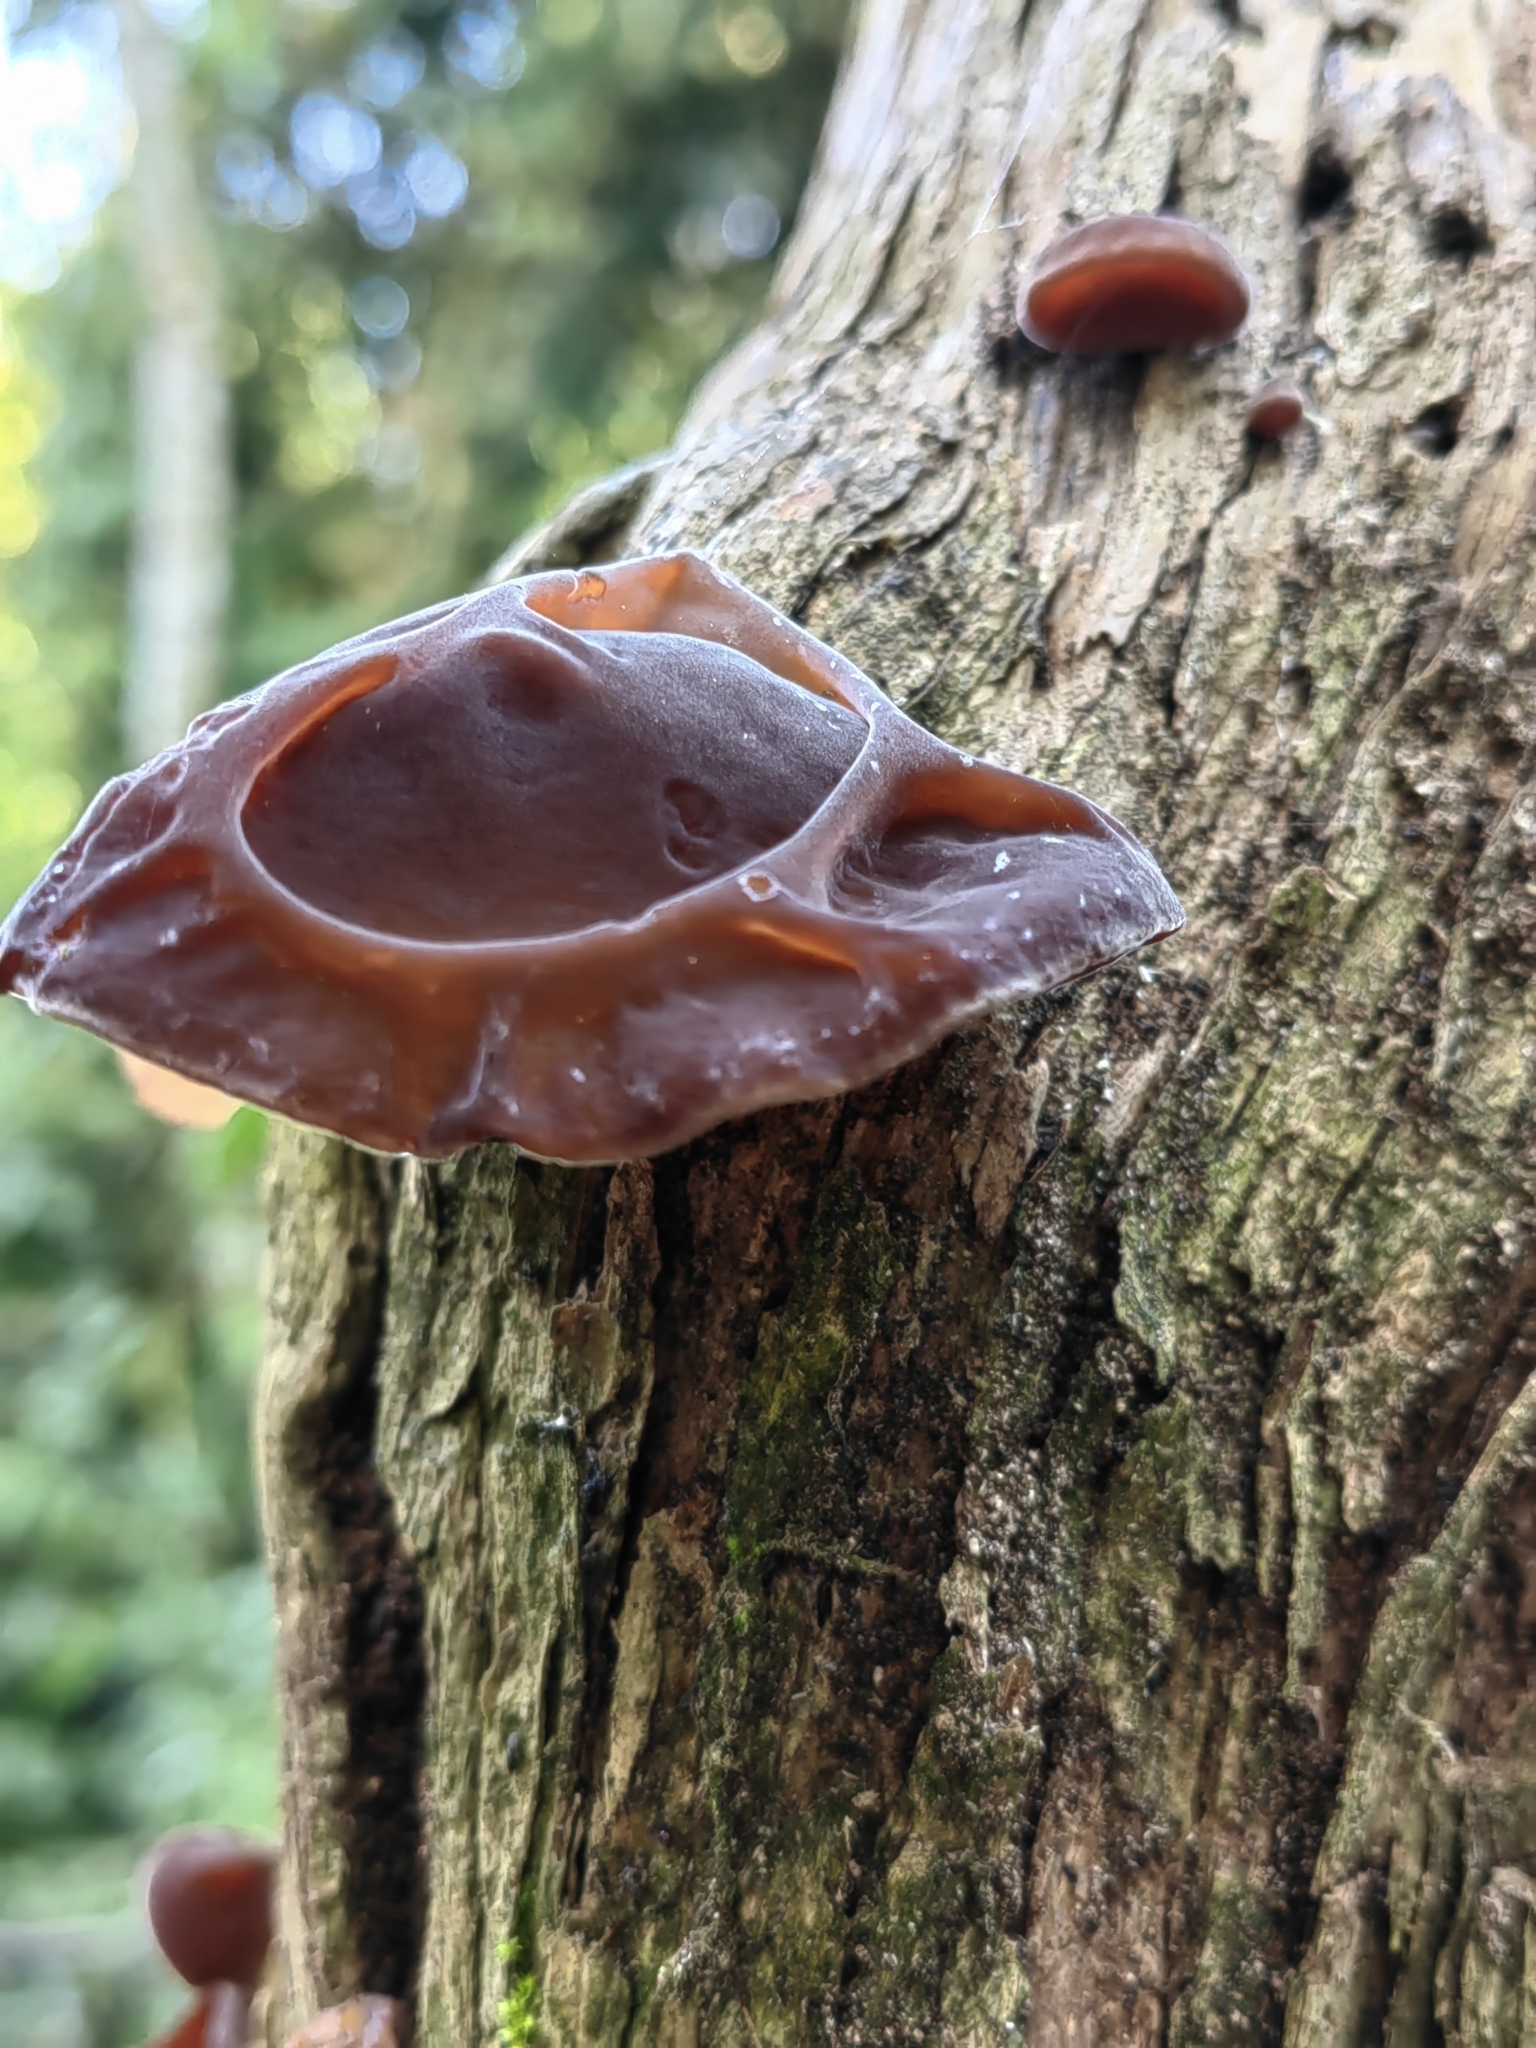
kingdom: Fungi
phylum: Basidiomycota
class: Agaricomycetes
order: Auriculariales
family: Auriculariaceae
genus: Auricularia
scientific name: Auricularia fuscosuccinea
